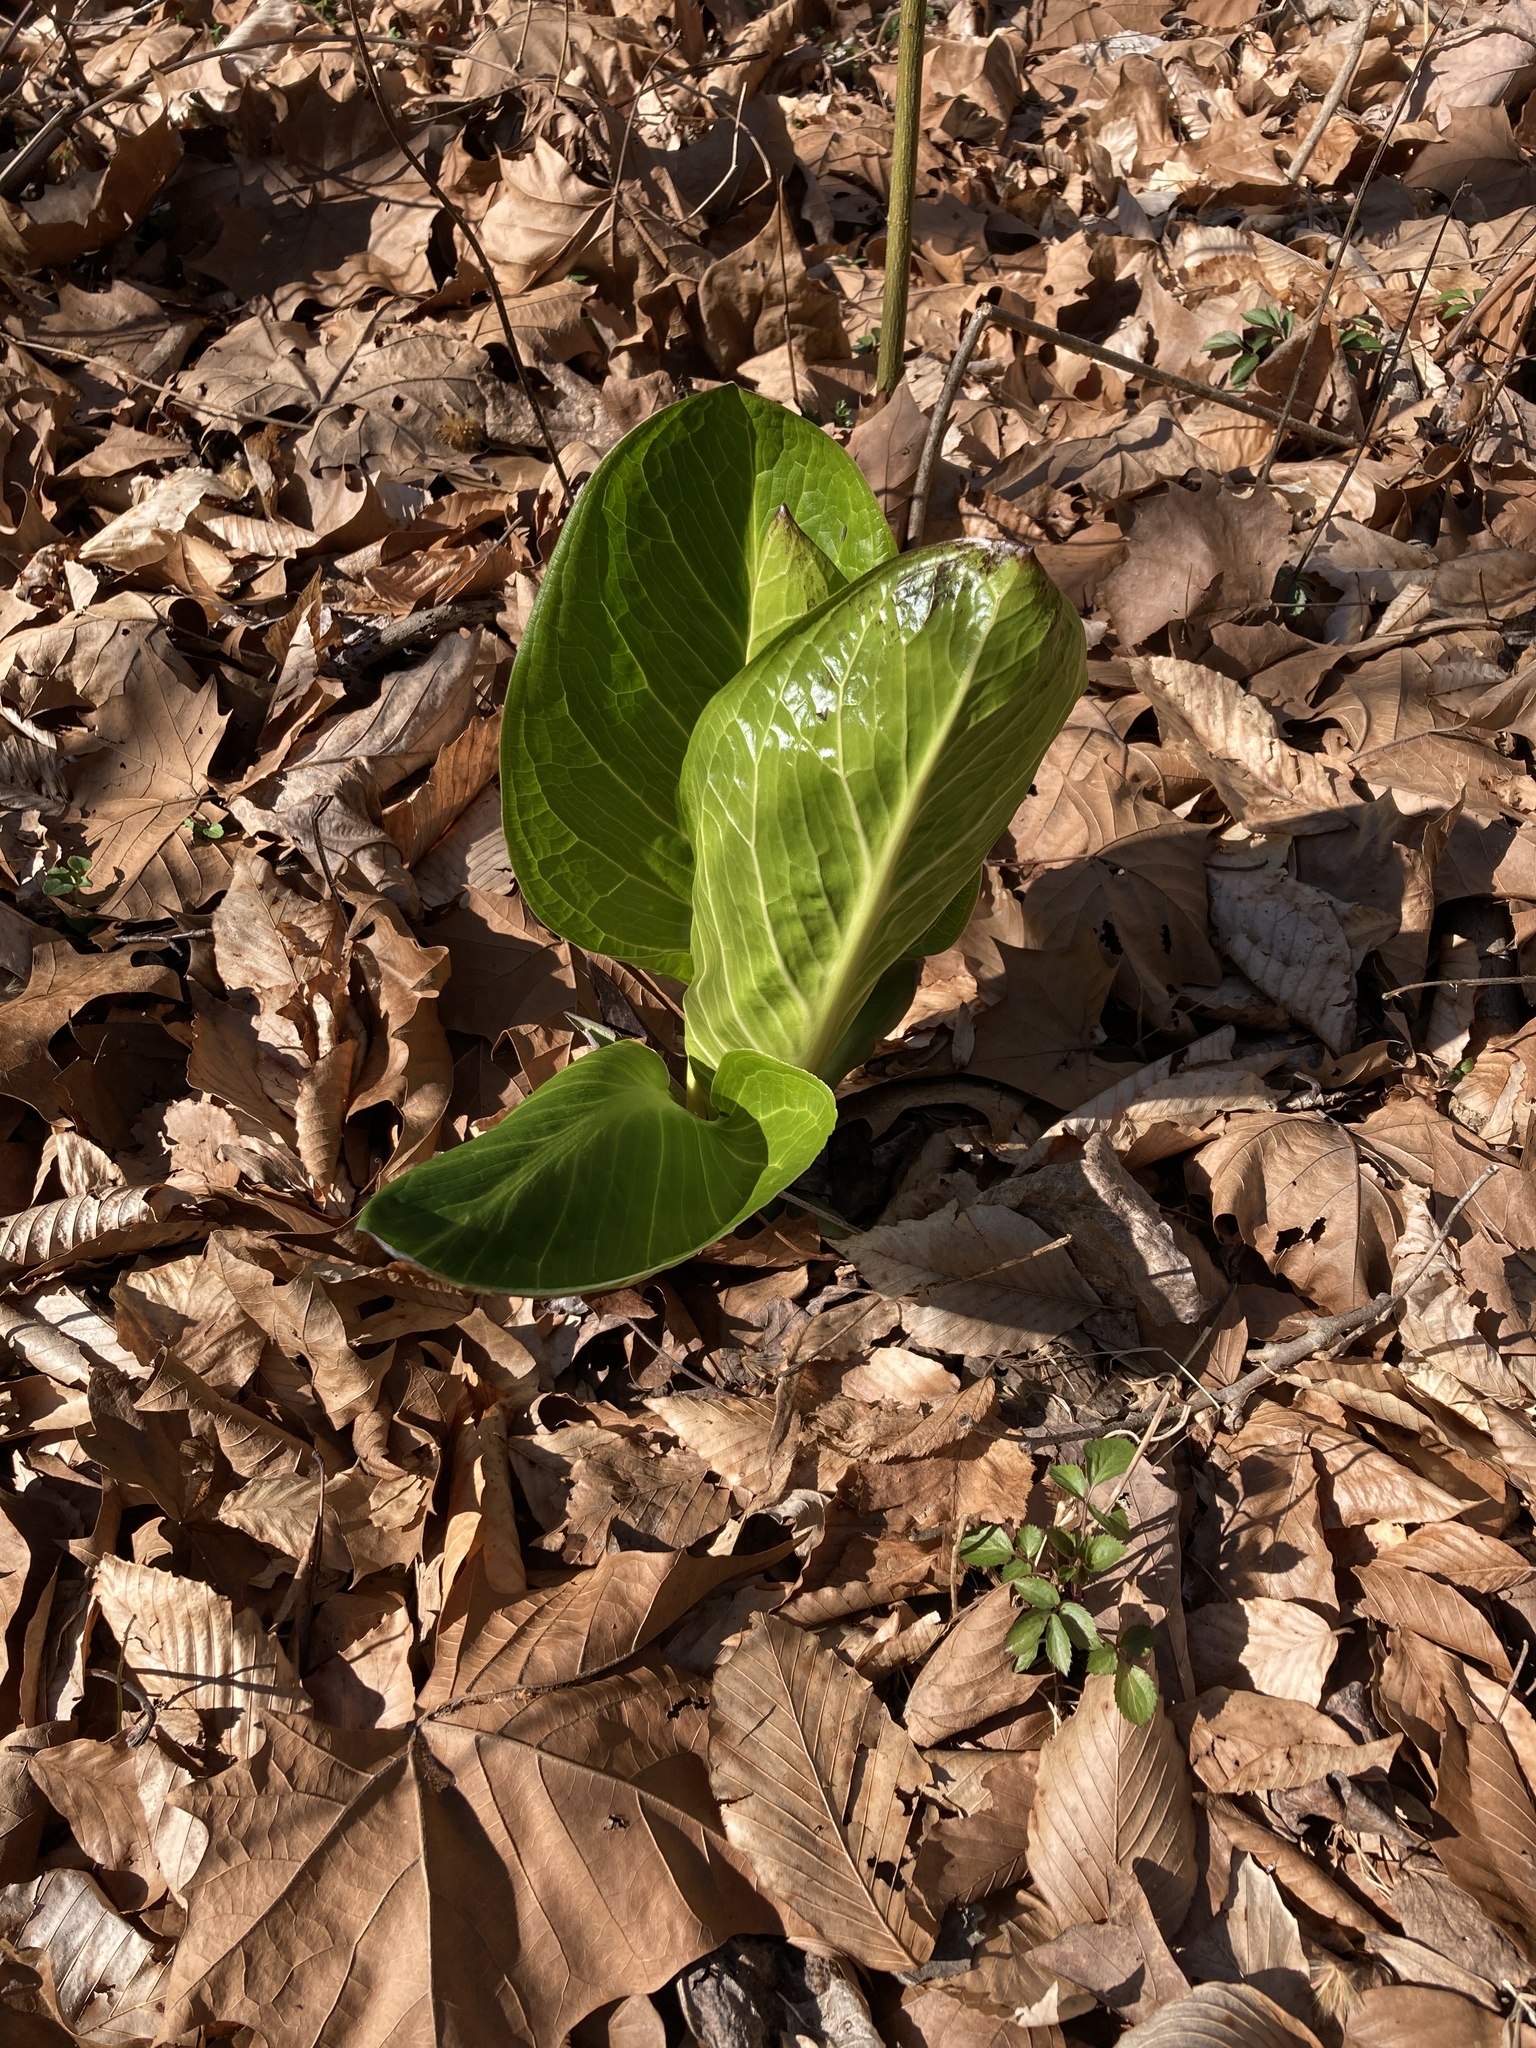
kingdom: Plantae
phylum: Tracheophyta
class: Liliopsida
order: Alismatales
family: Araceae
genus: Symplocarpus
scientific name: Symplocarpus foetidus
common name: Eastern skunk cabbage
